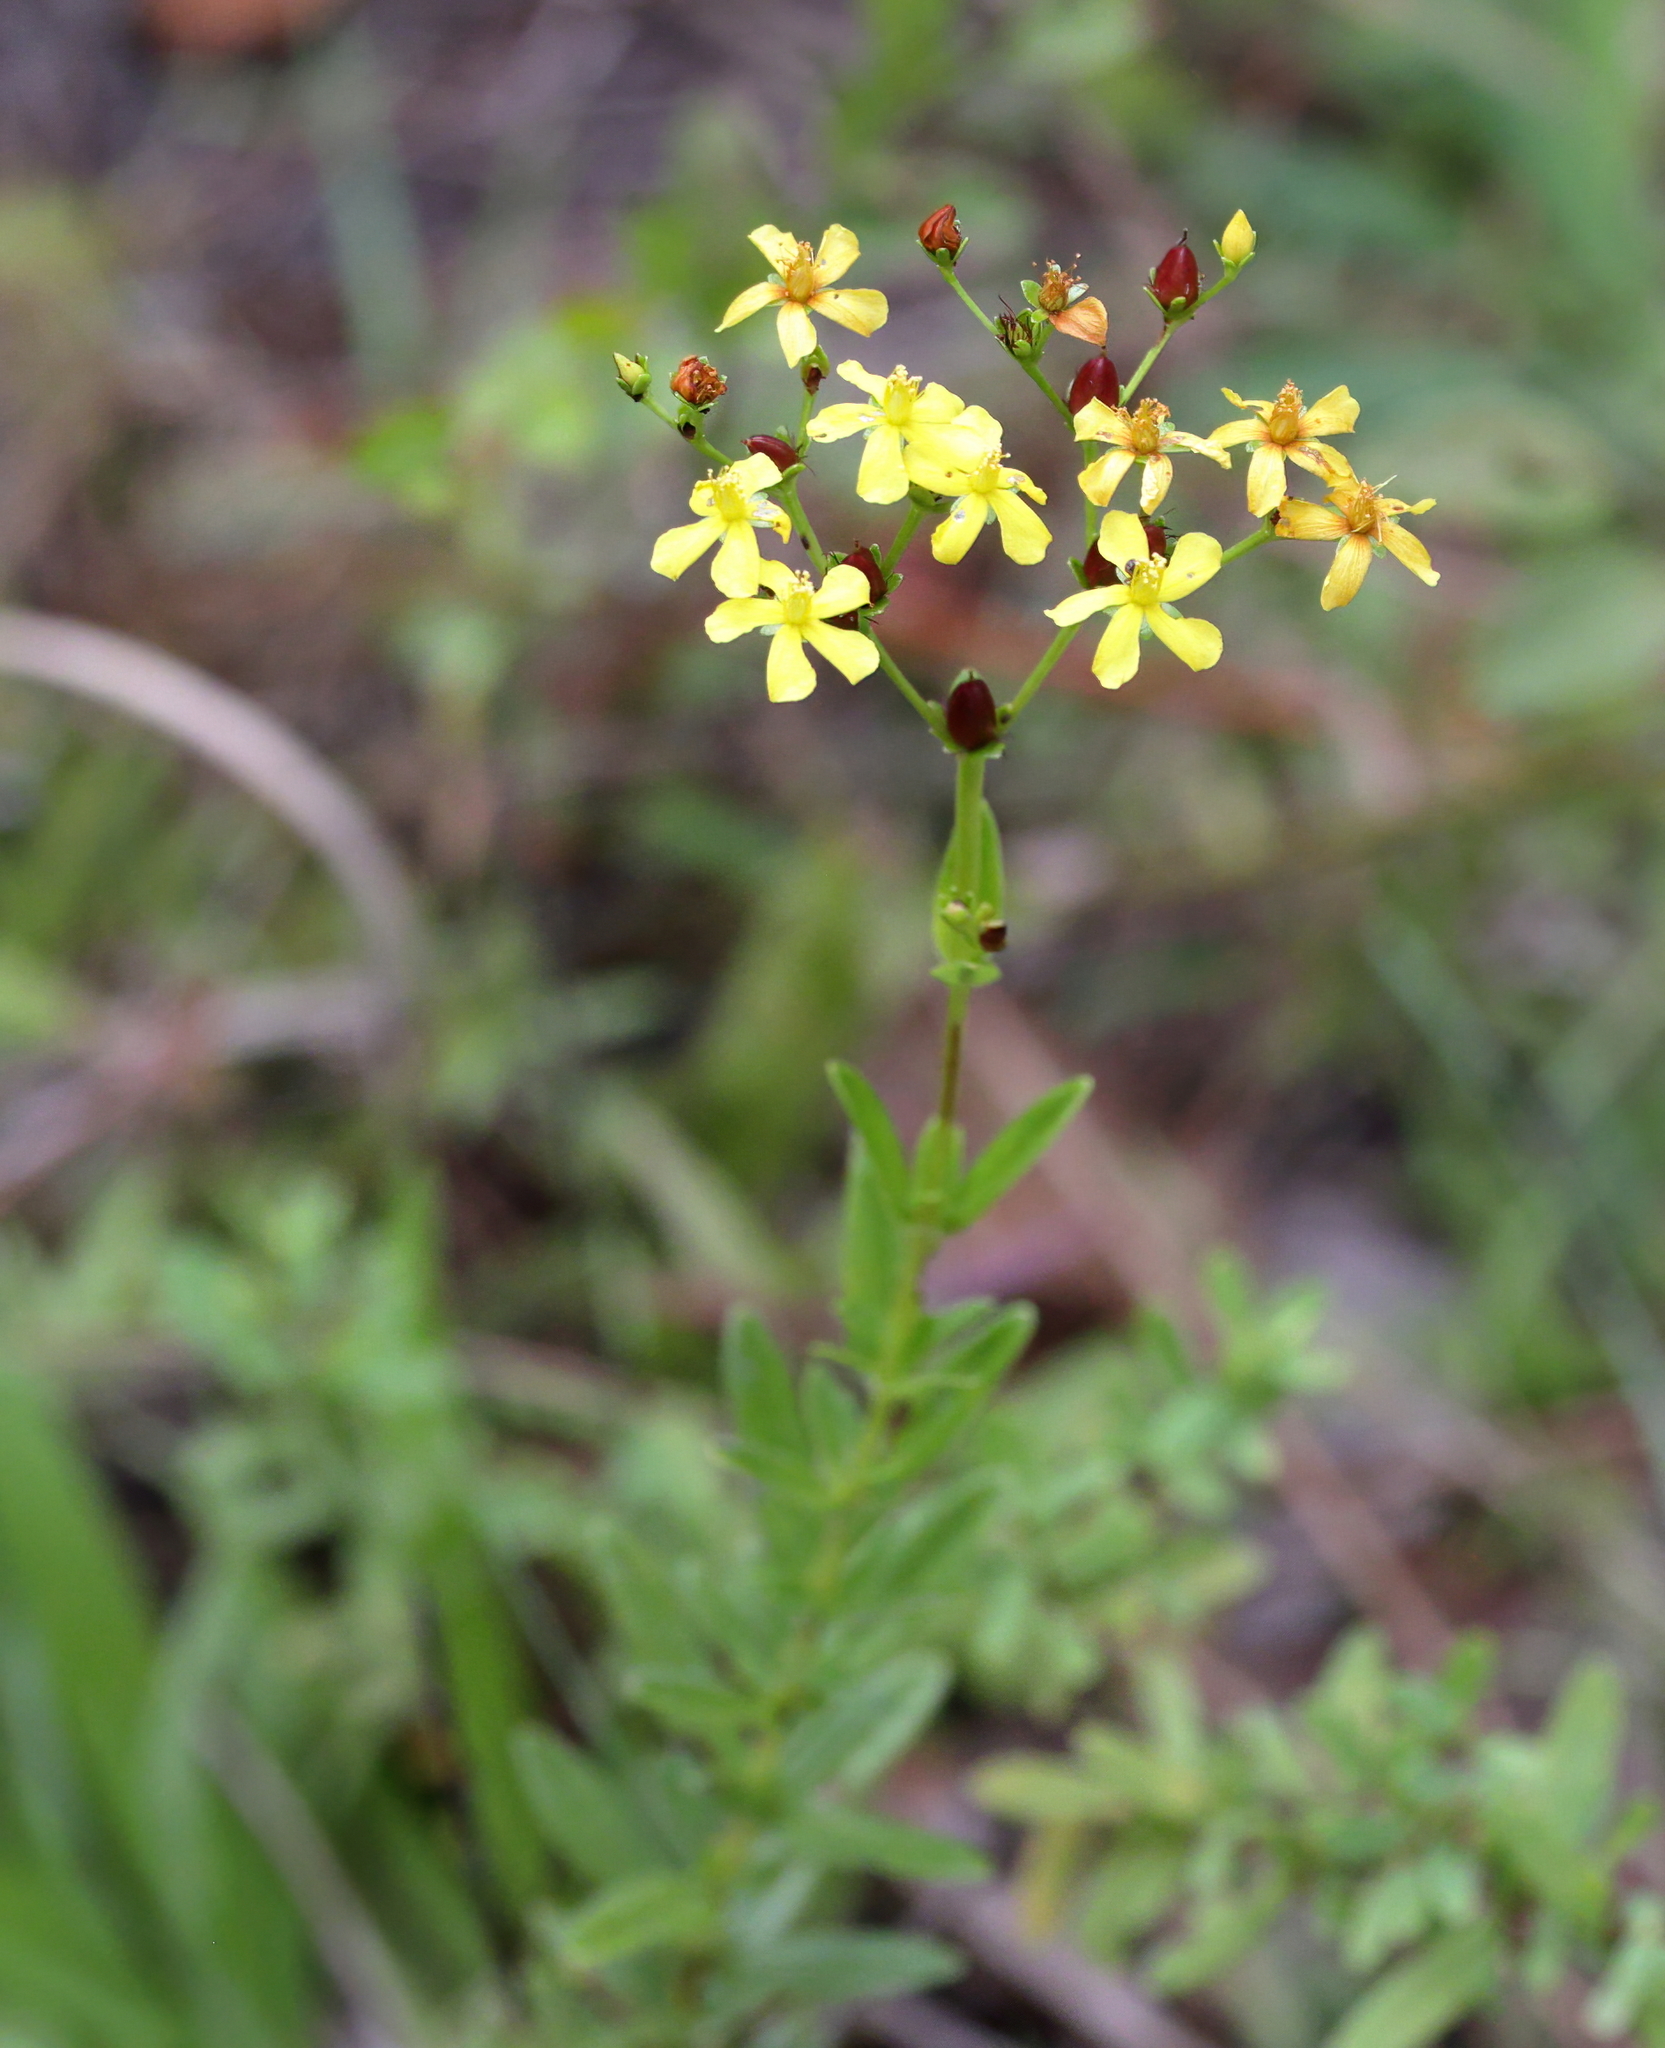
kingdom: Plantae
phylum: Tracheophyta
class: Magnoliopsida
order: Malpighiales
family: Hypericaceae
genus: Hypericum
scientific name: Hypericum cistifolium
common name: Round-pod st. john's-wort
